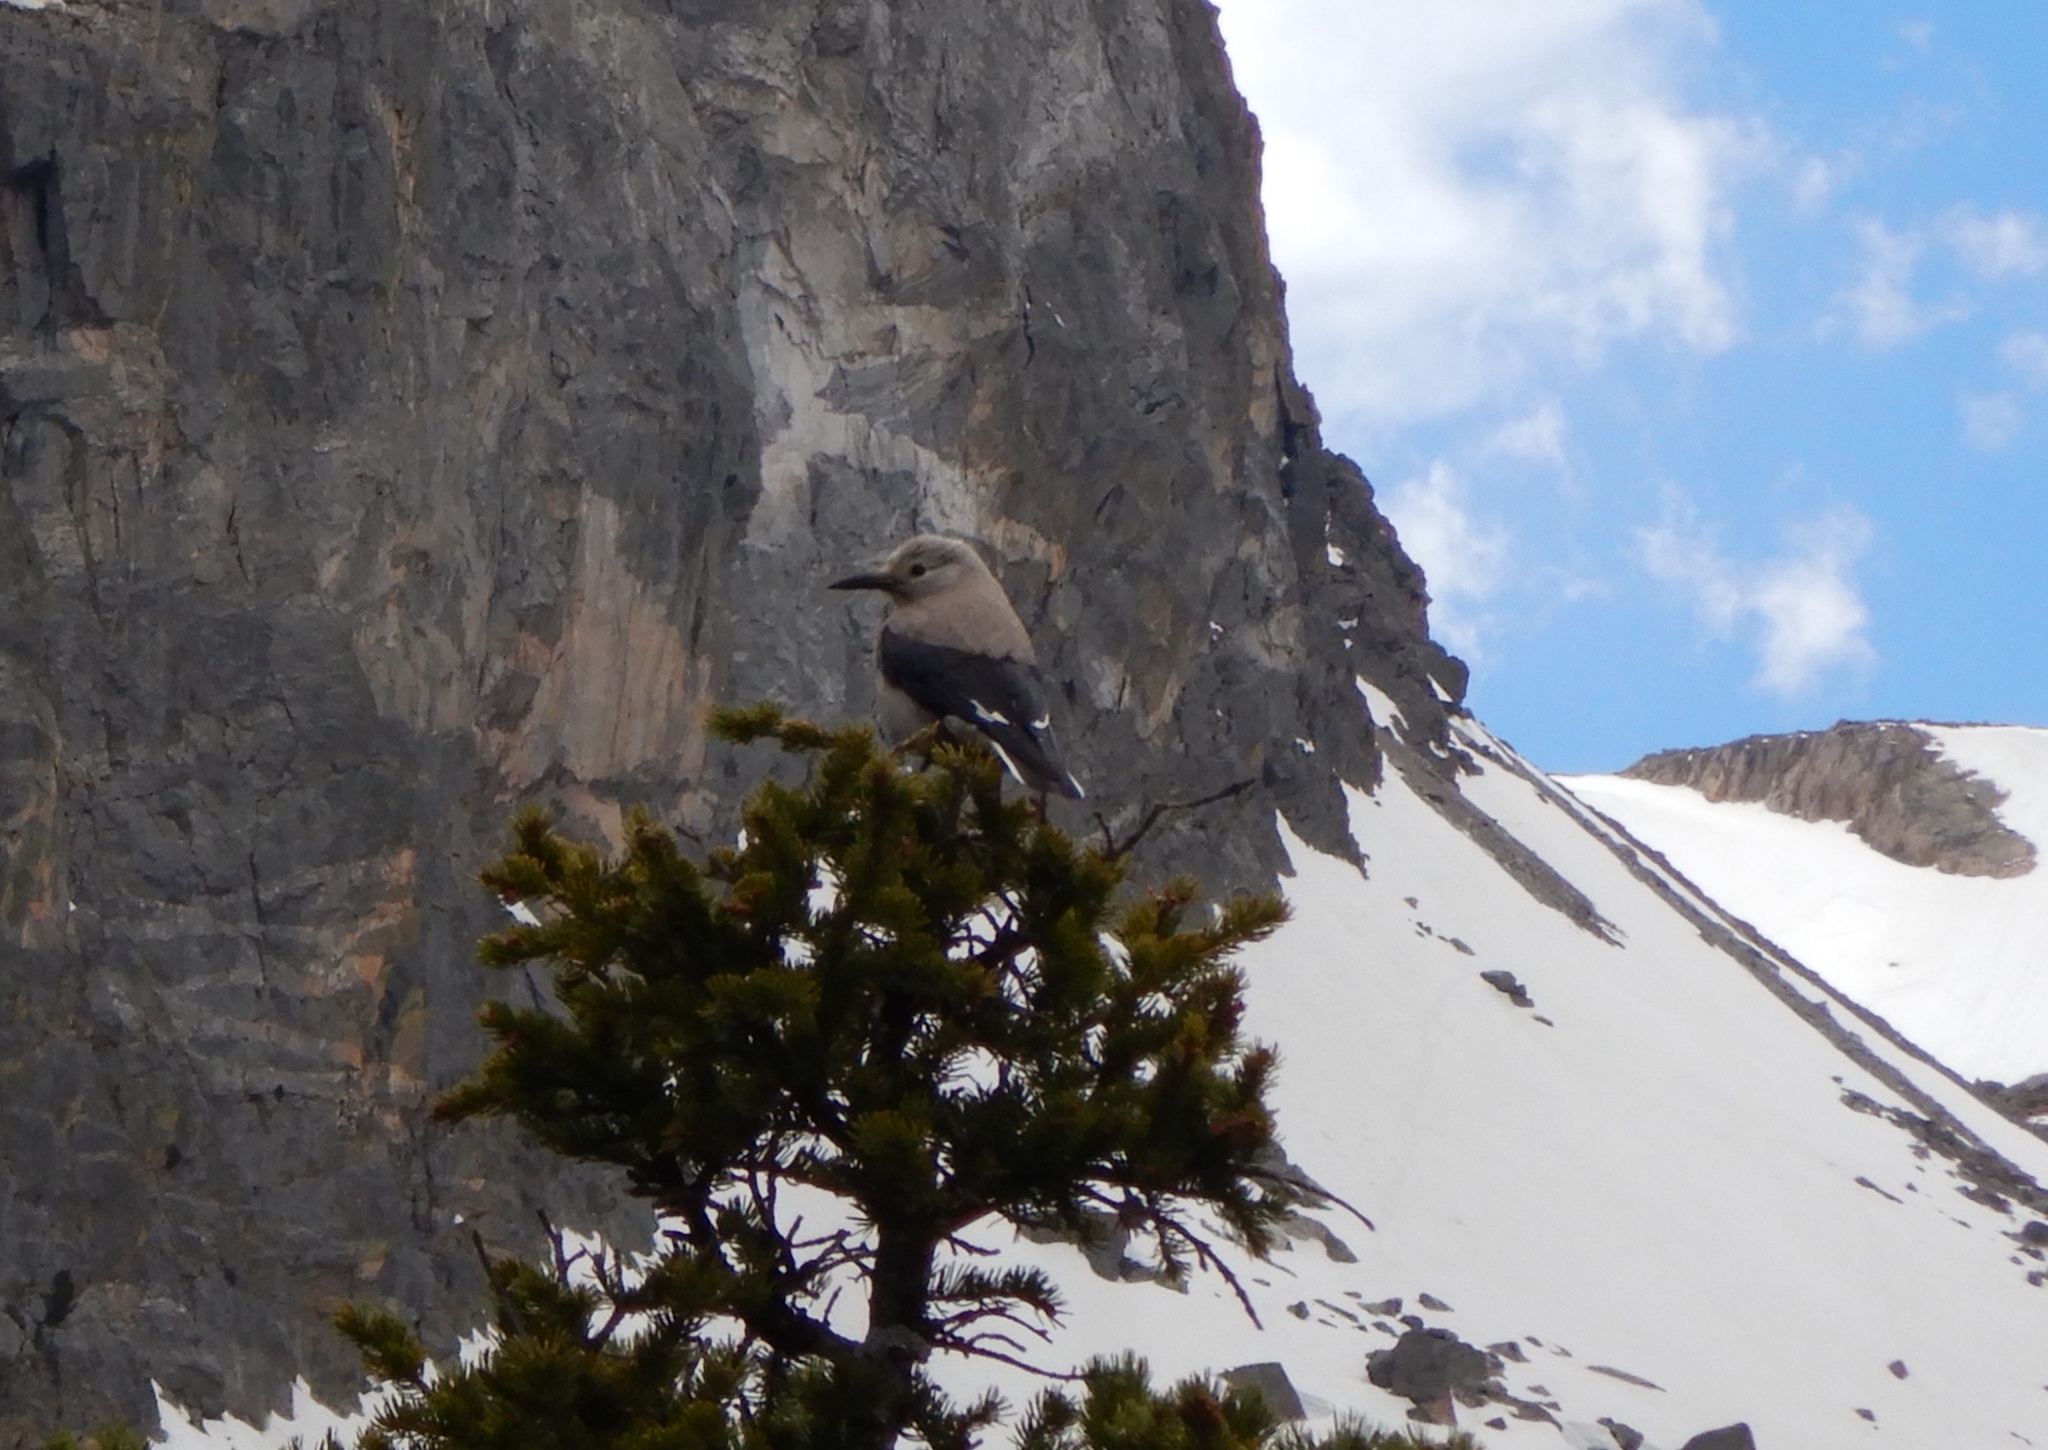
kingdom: Animalia
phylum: Chordata
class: Aves
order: Passeriformes
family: Corvidae
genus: Nucifraga
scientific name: Nucifraga columbiana
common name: Clark's nutcracker
